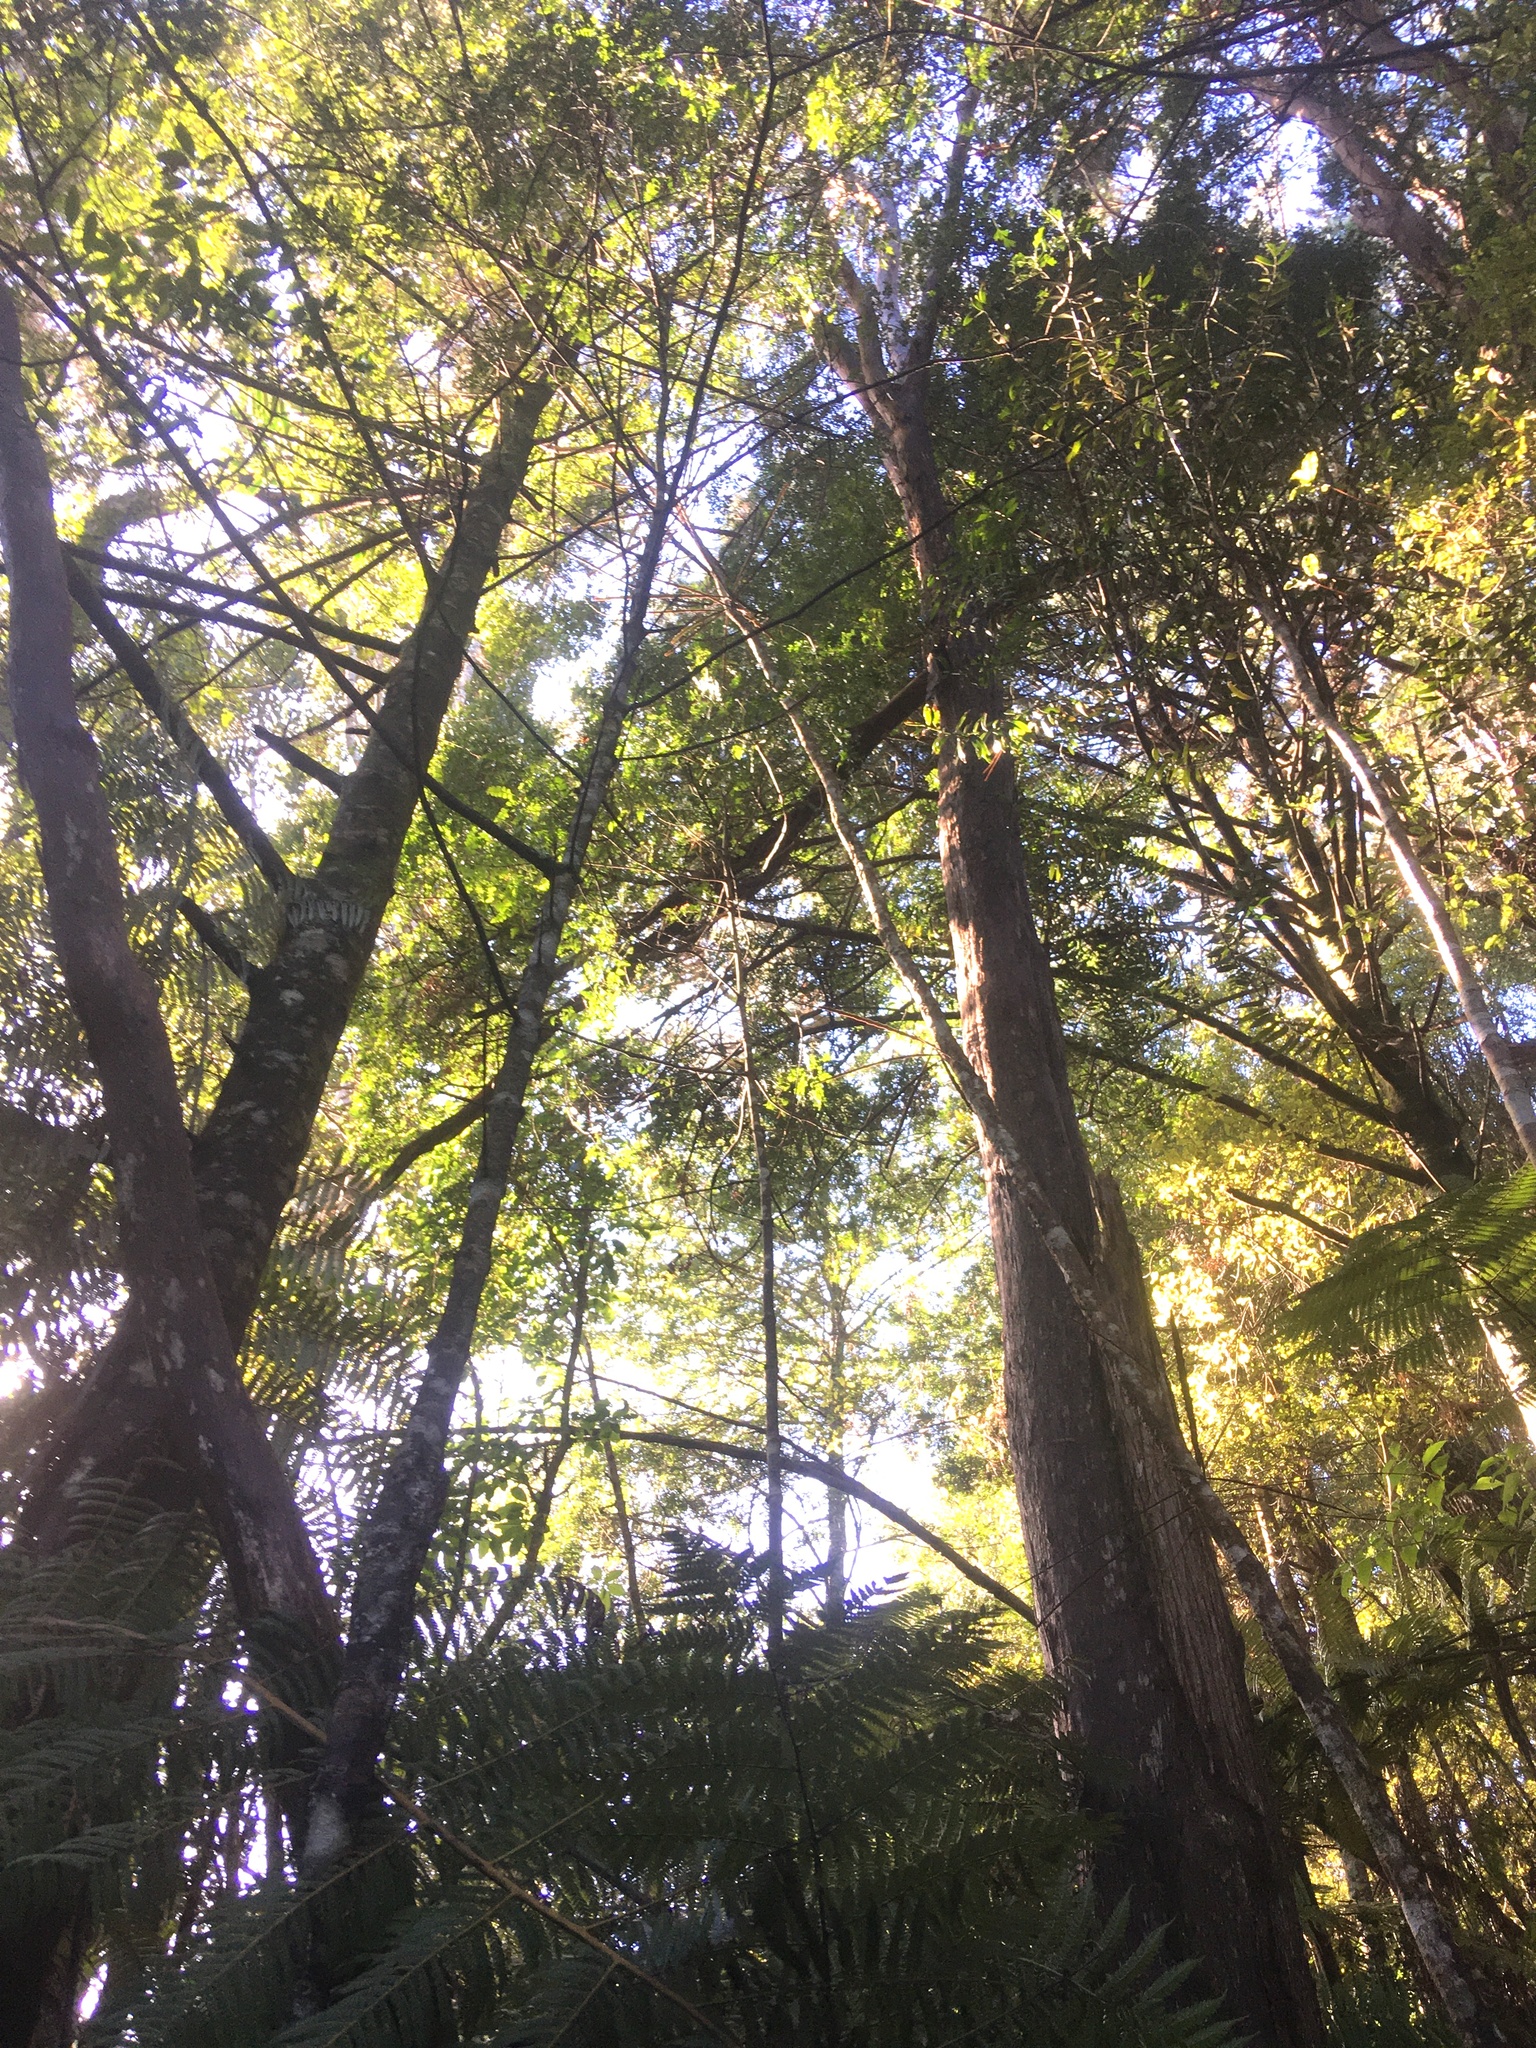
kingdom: Plantae
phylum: Tracheophyta
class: Liliopsida
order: Liliales
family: Ripogonaceae
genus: Ripogonum
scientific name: Ripogonum scandens
